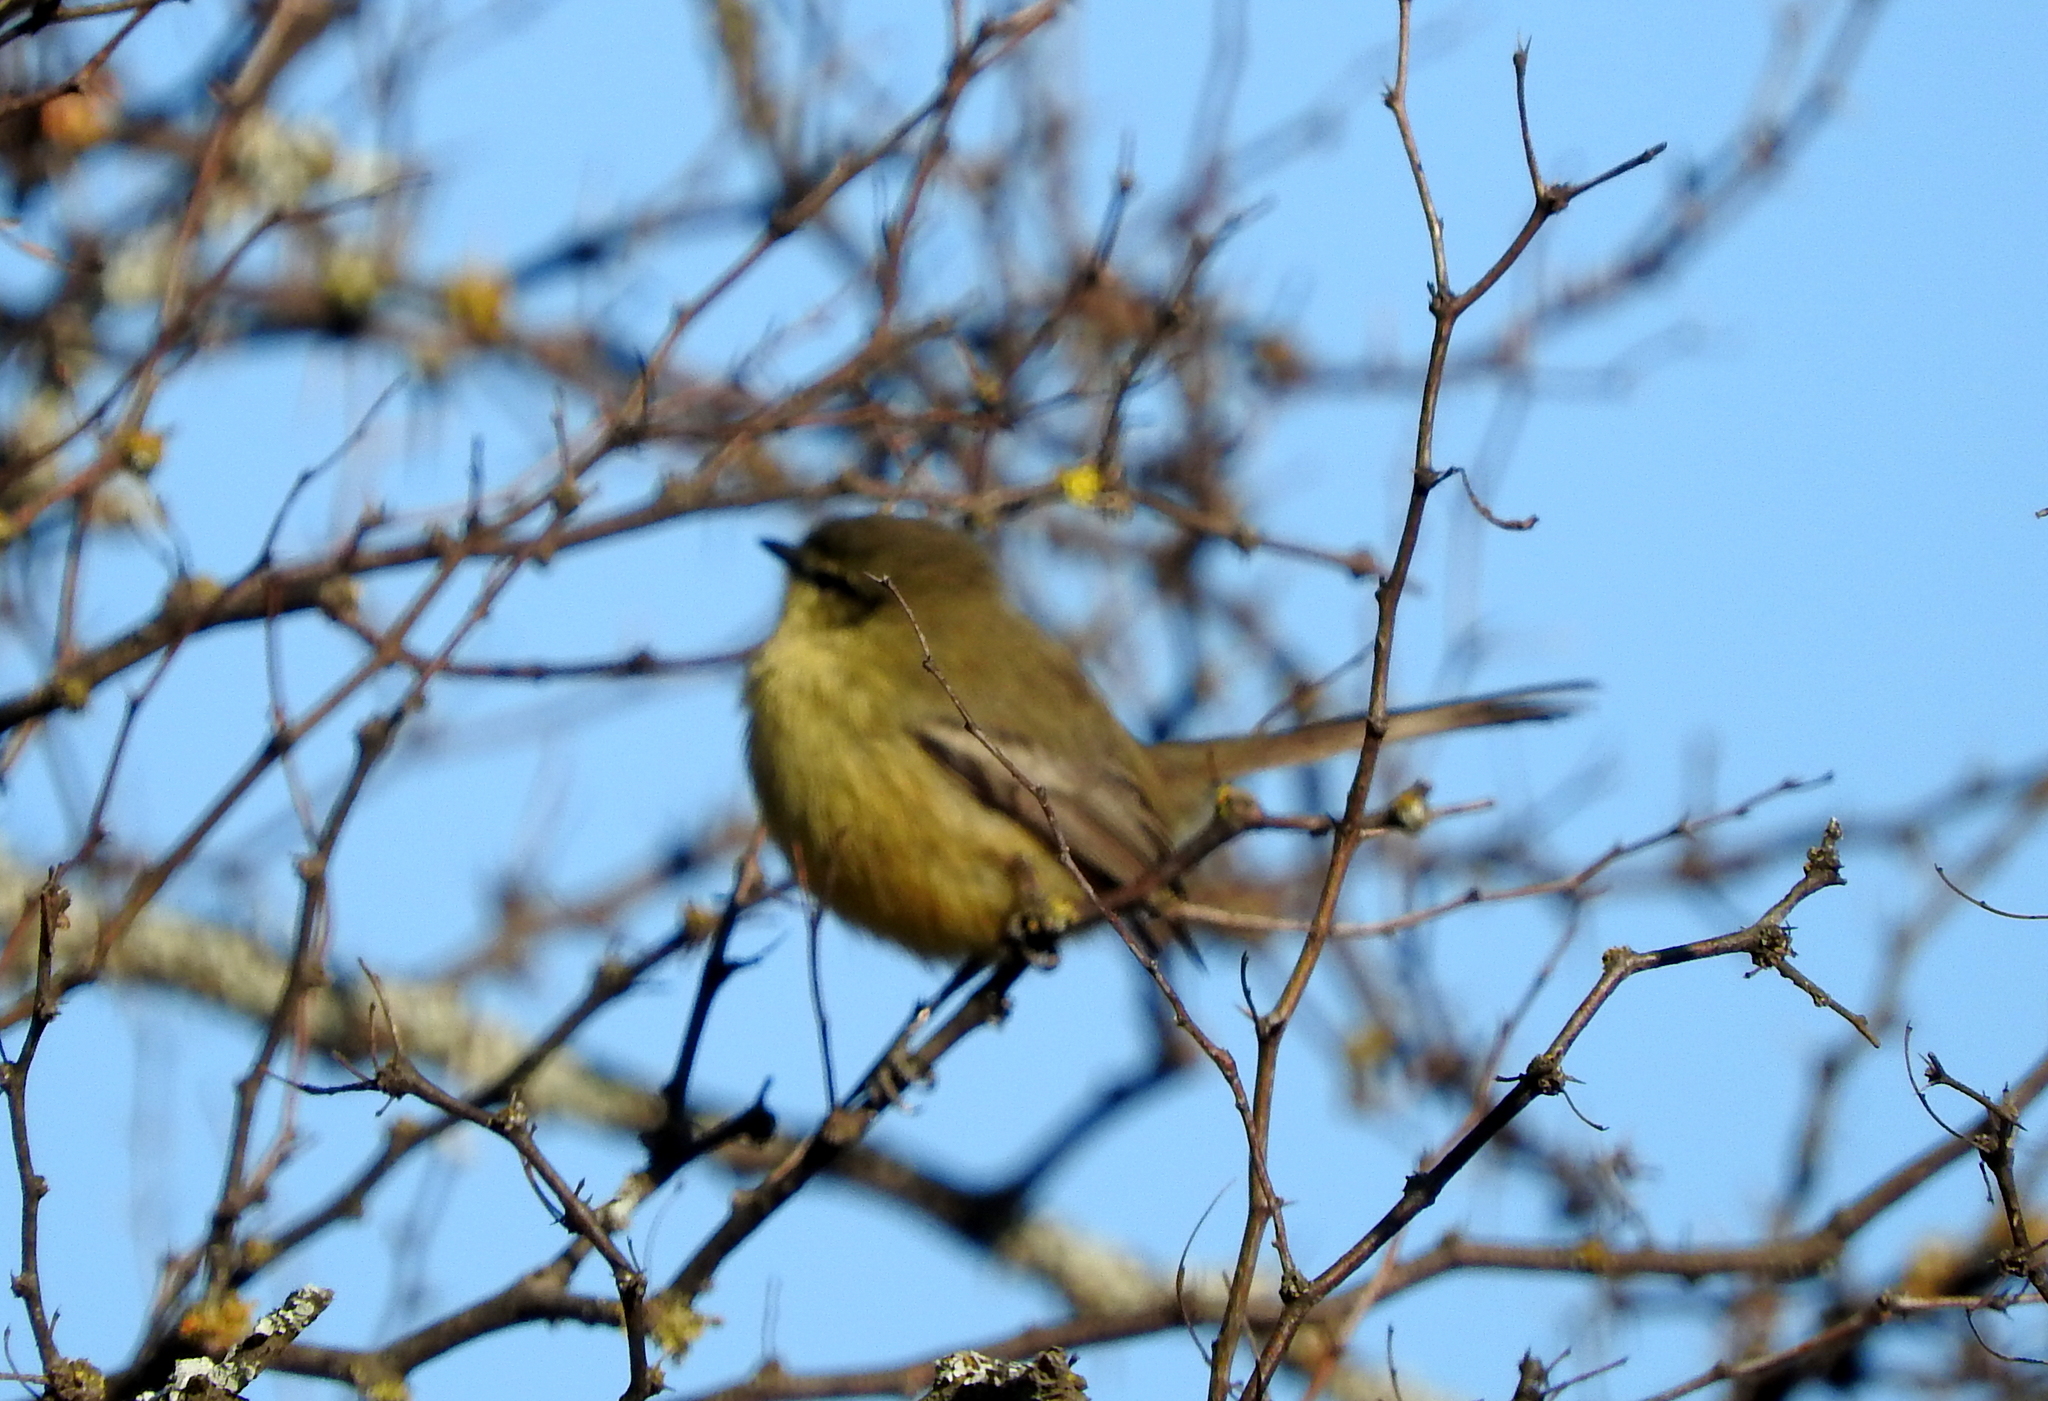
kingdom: Animalia
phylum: Chordata
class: Aves
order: Passeriformes
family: Tyrannidae
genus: Stigmatura
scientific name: Stigmatura budytoides
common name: Greater wagtail-tyrant
